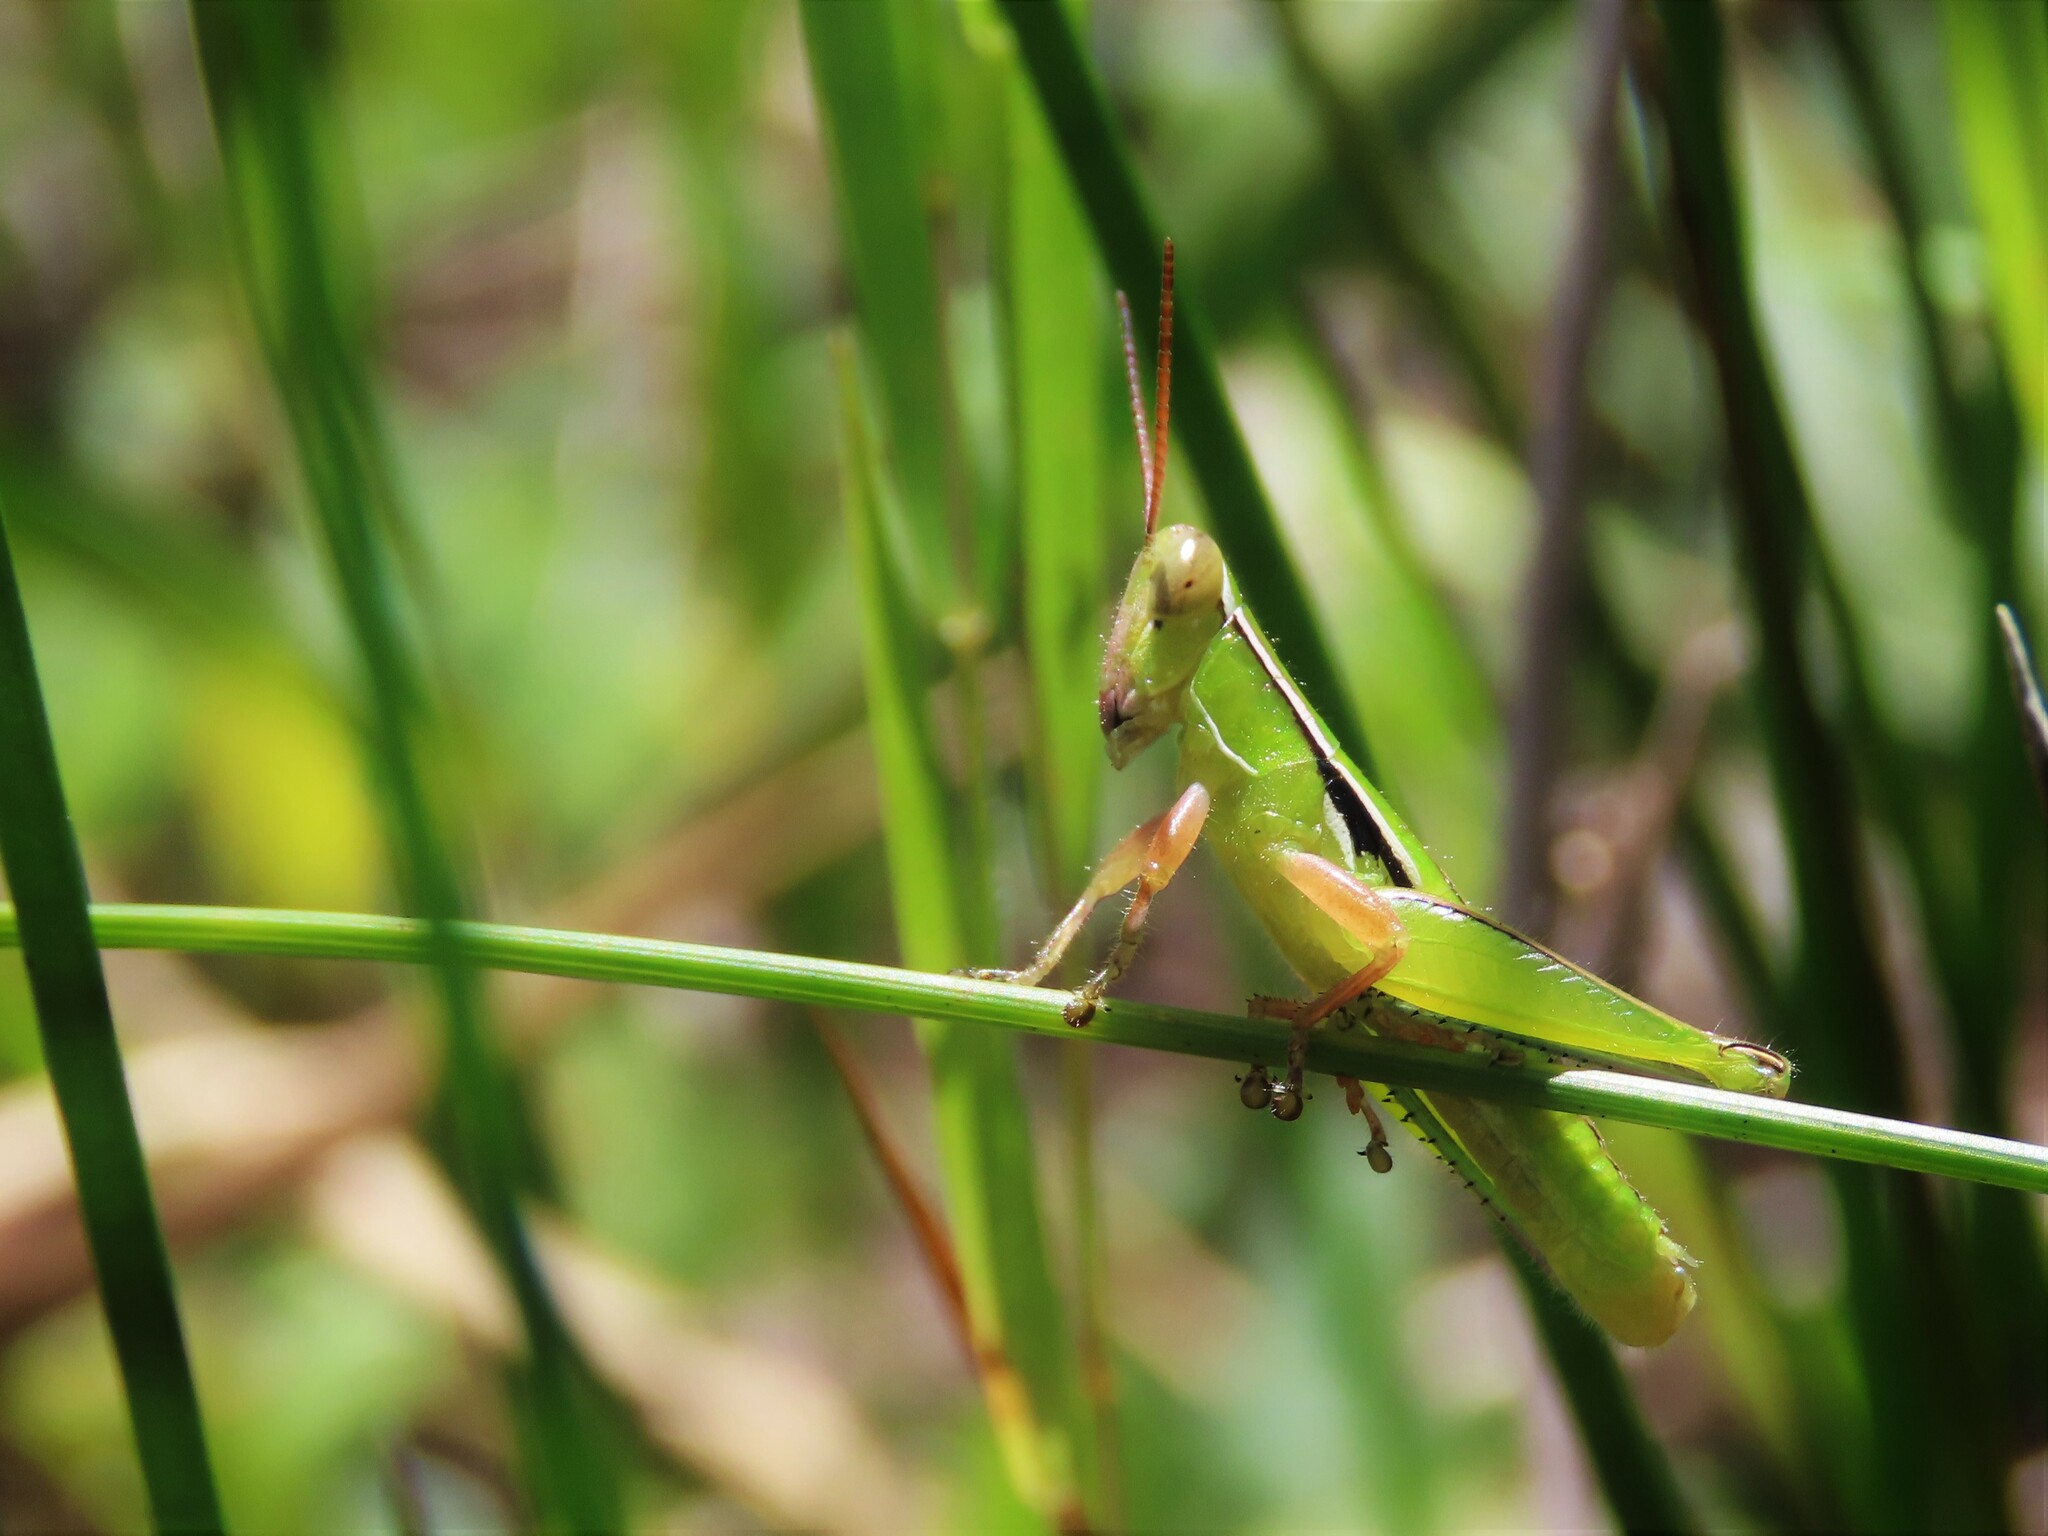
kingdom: Animalia
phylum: Arthropoda
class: Insecta
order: Orthoptera
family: Acrididae
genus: Aptenopedes
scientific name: Aptenopedes rufovittata
